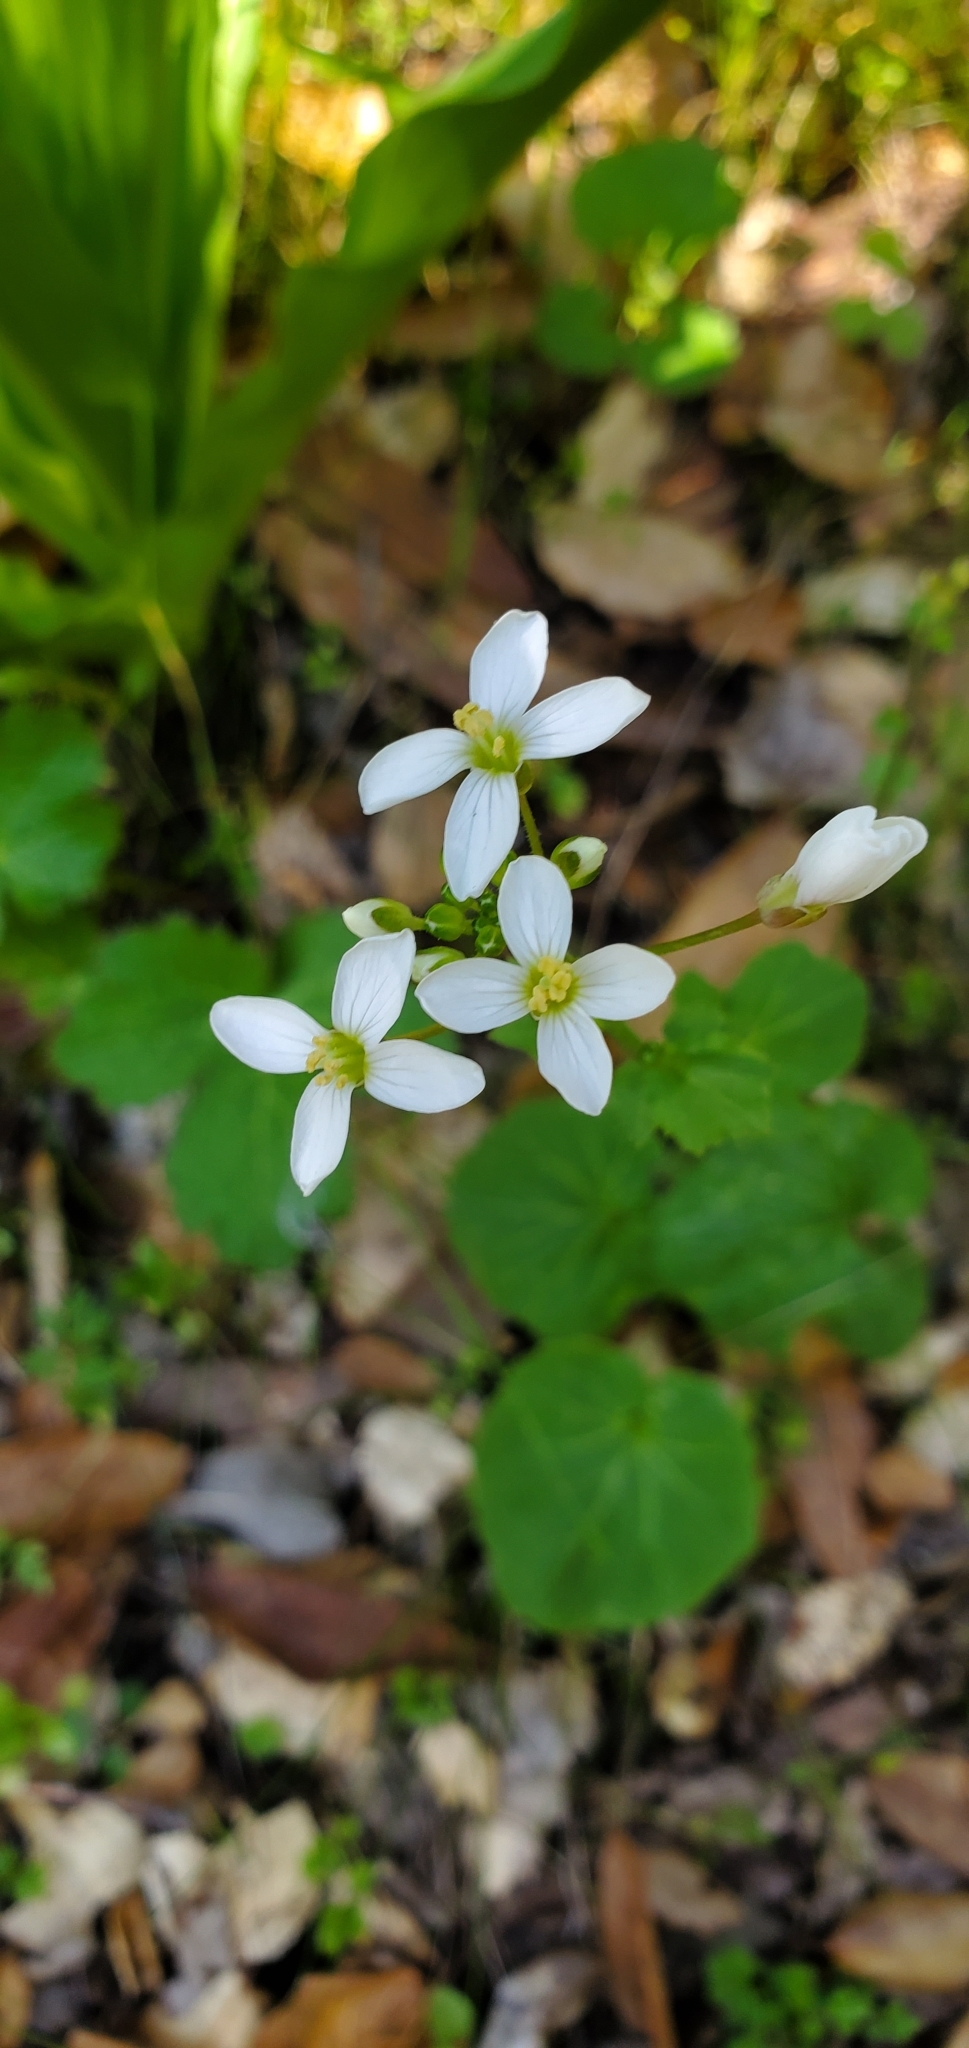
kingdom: Plantae
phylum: Tracheophyta
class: Magnoliopsida
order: Brassicales
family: Brassicaceae
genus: Cardamine
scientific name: Cardamine californica
